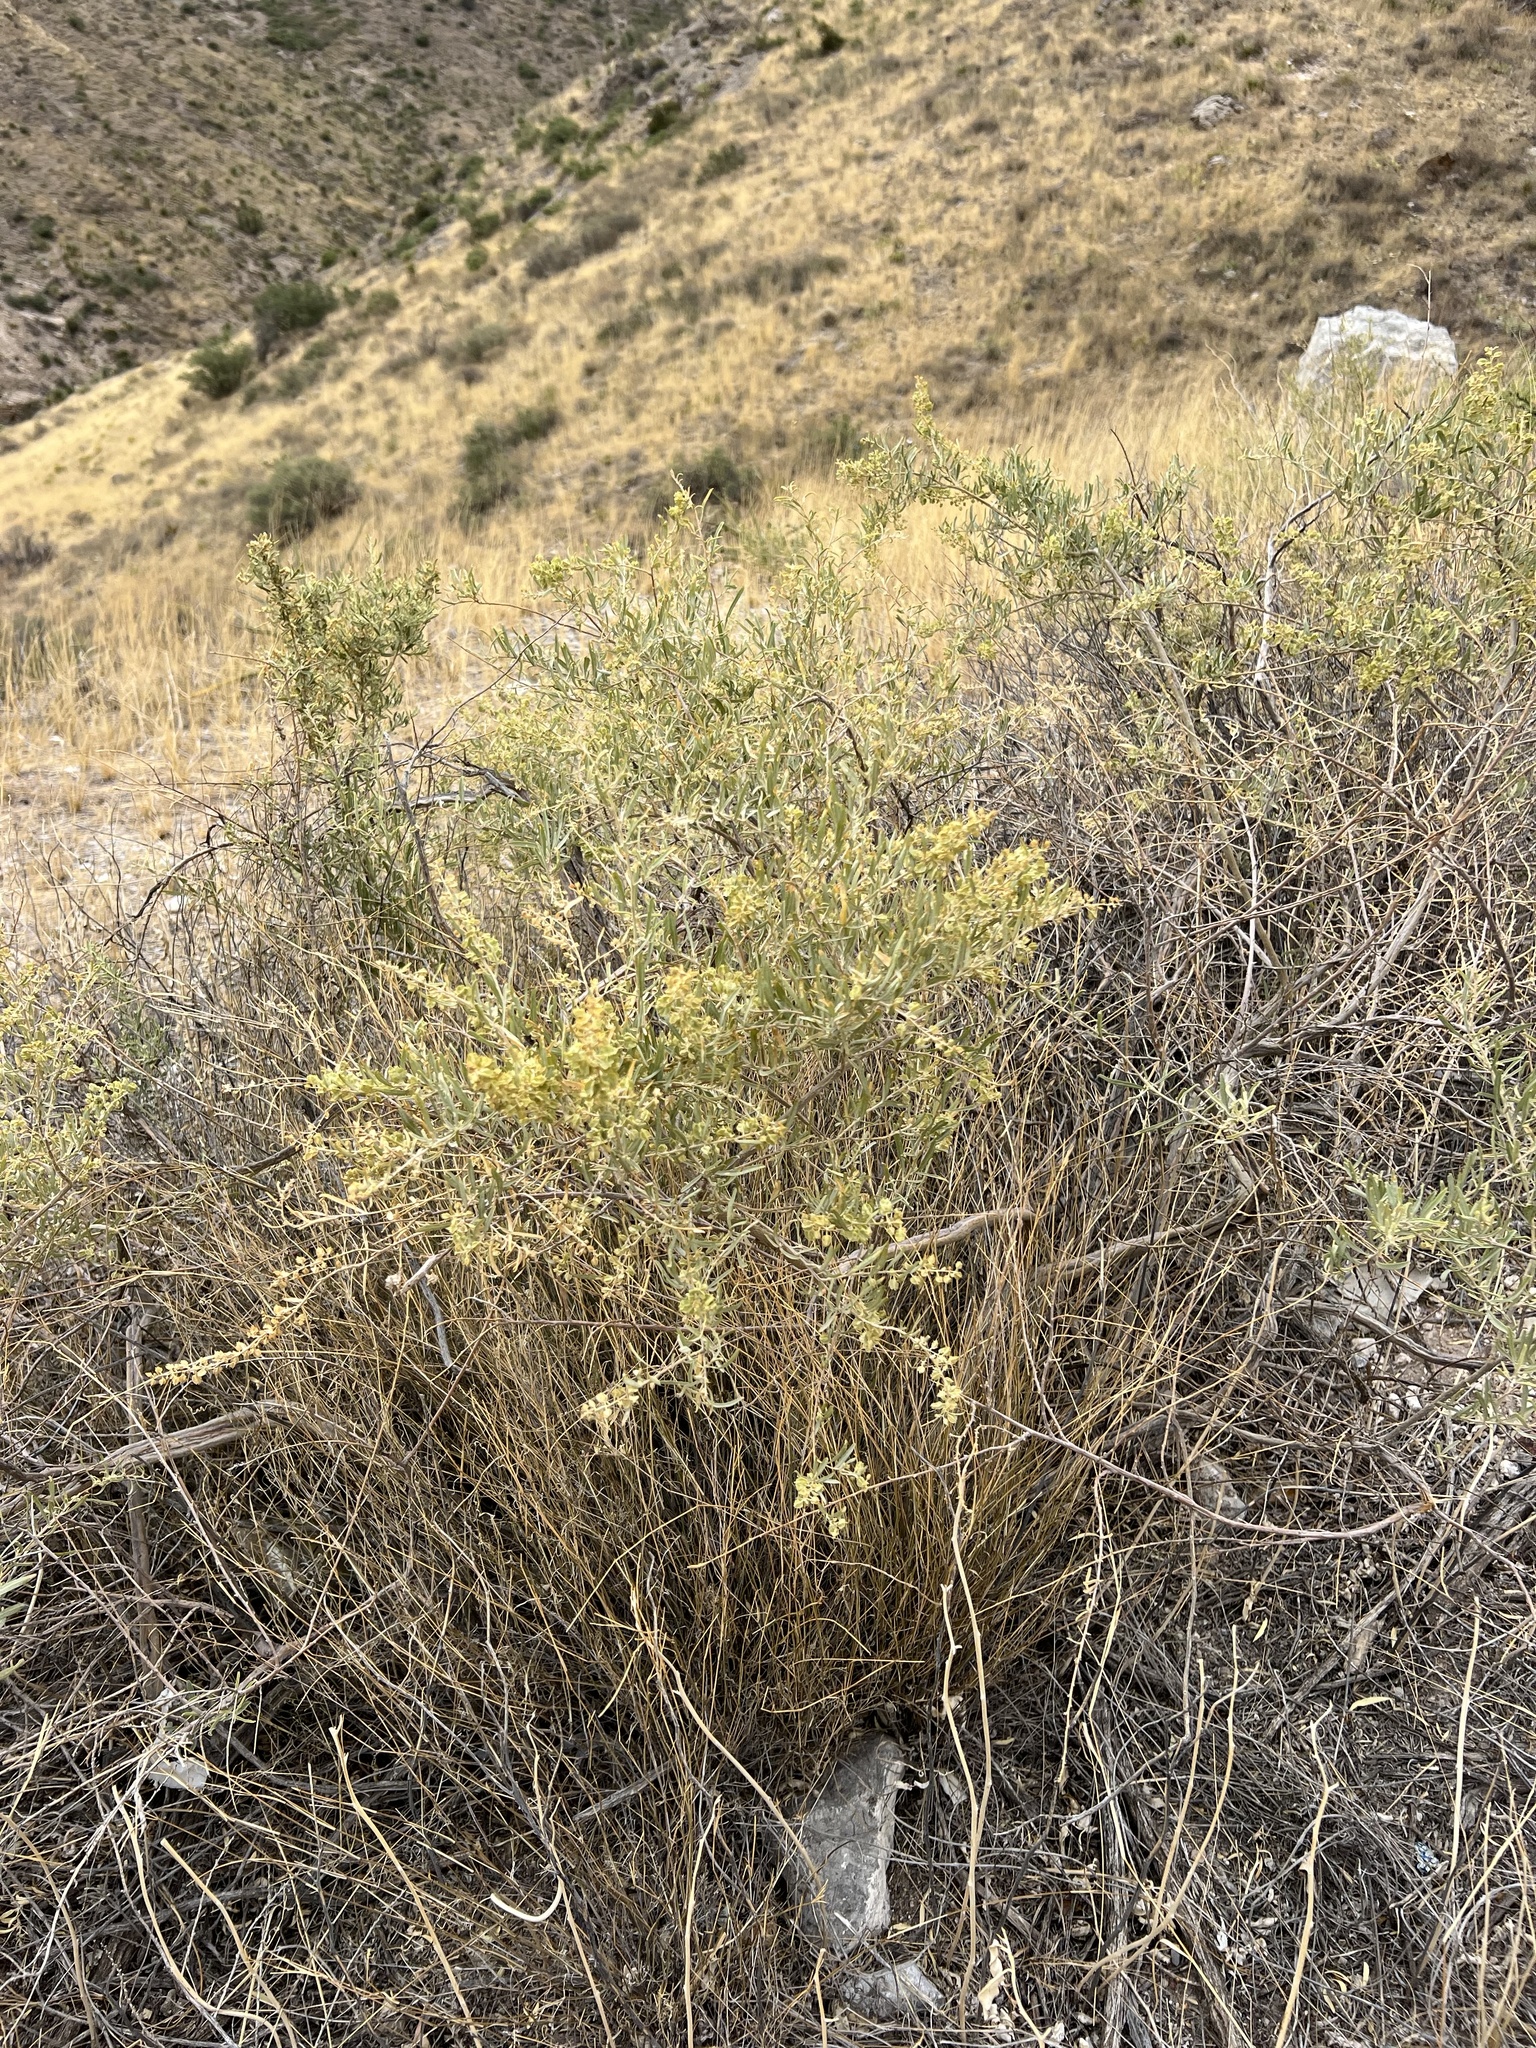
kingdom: Plantae
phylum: Tracheophyta
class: Magnoliopsida
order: Caryophyllales
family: Amaranthaceae
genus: Atriplex
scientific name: Atriplex canescens
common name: Four-wing saltbush
